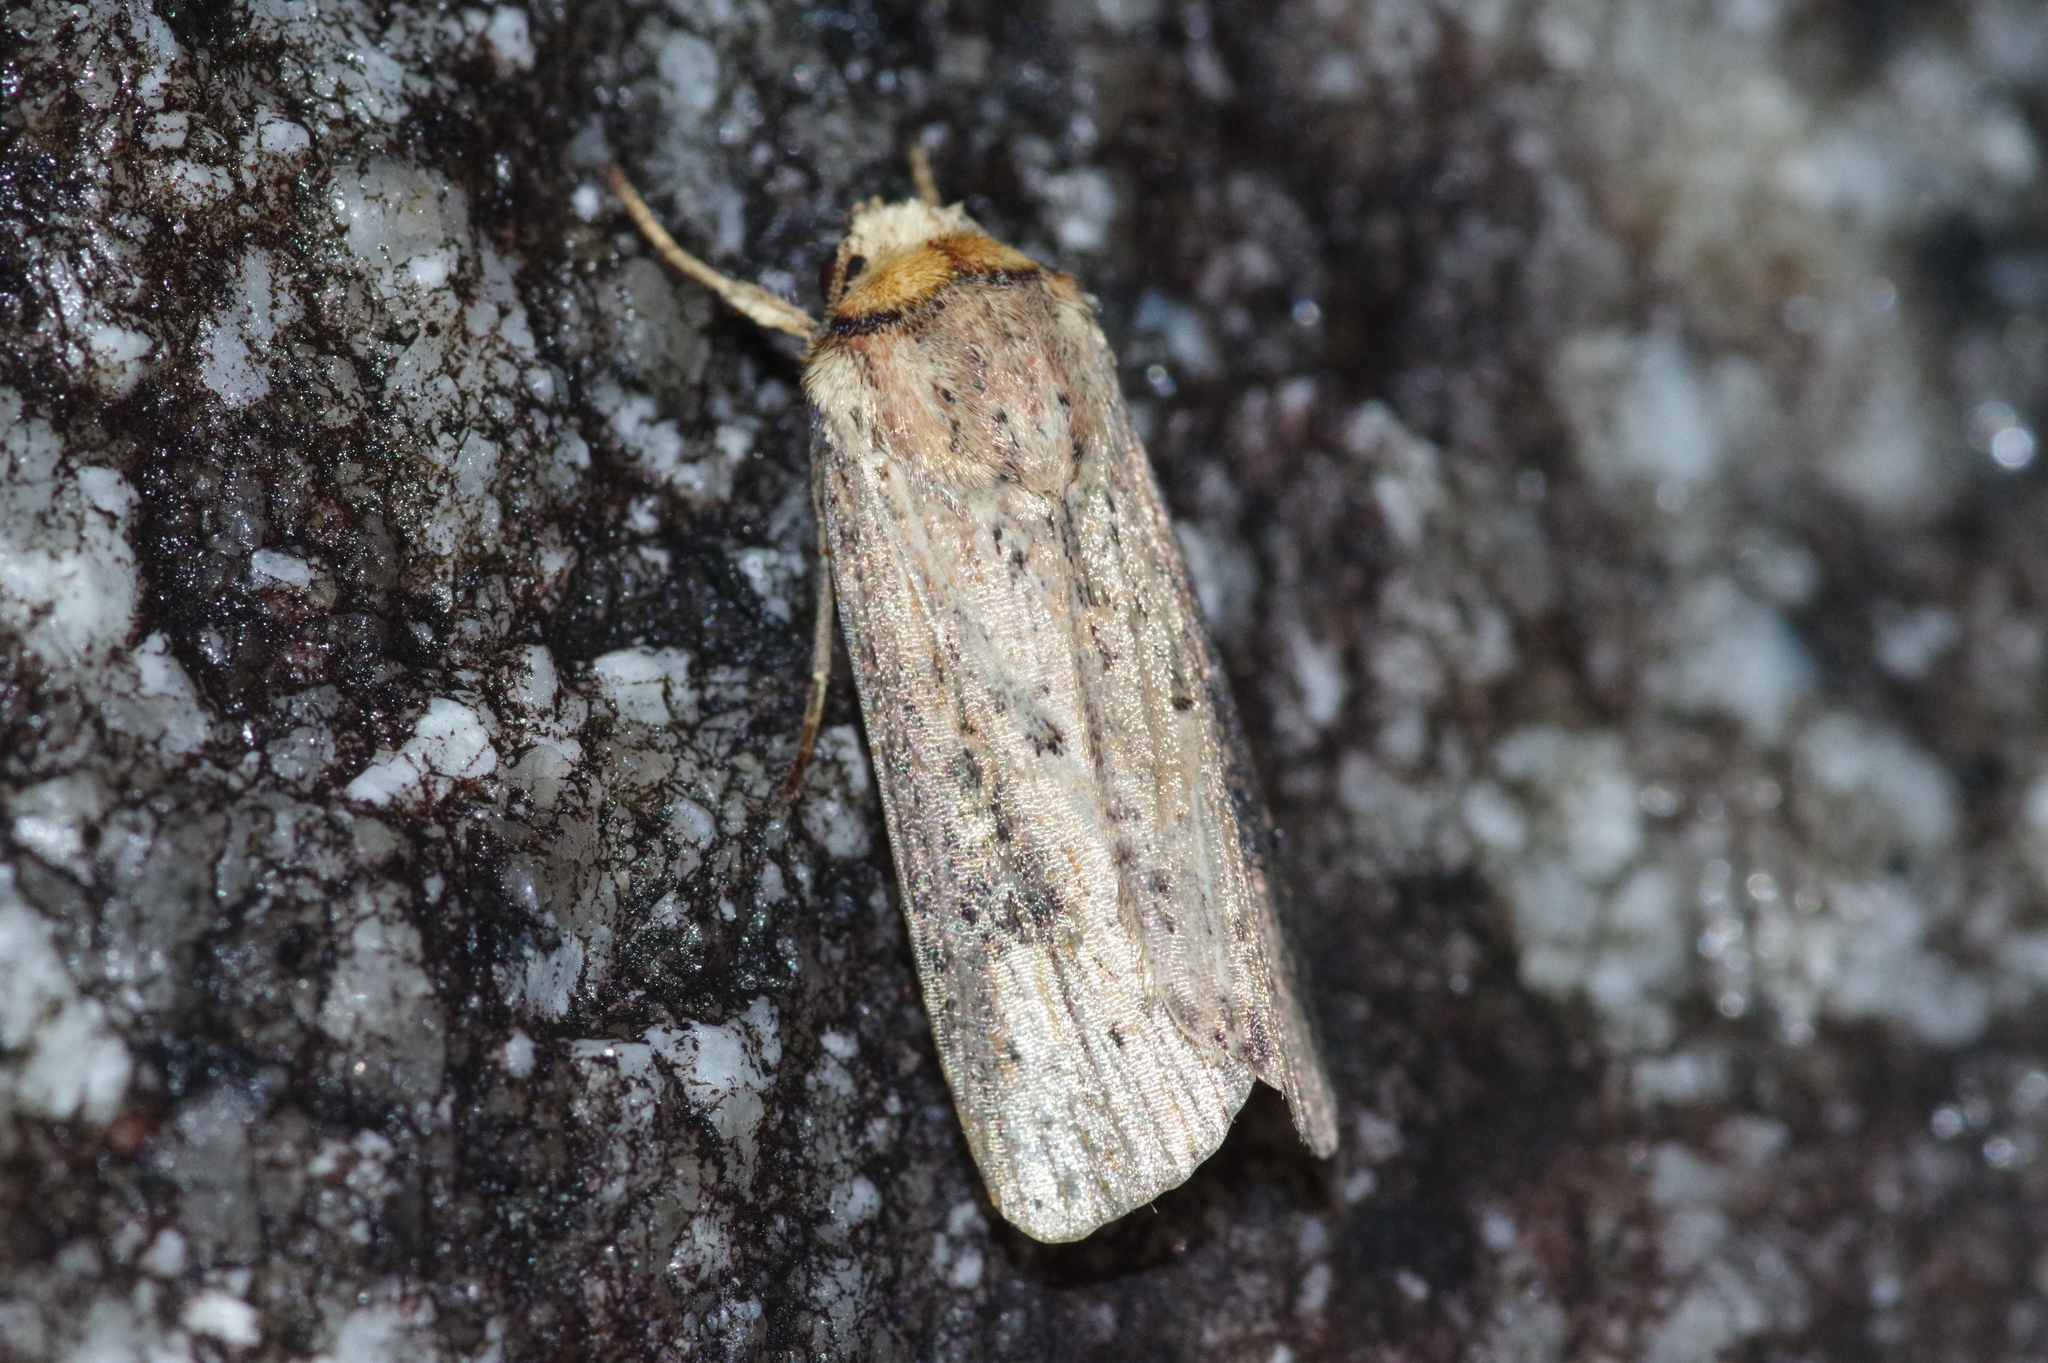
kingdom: Animalia
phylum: Arthropoda
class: Insecta
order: Lepidoptera
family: Noctuidae
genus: Axylia
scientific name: Axylia putris
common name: Flame
